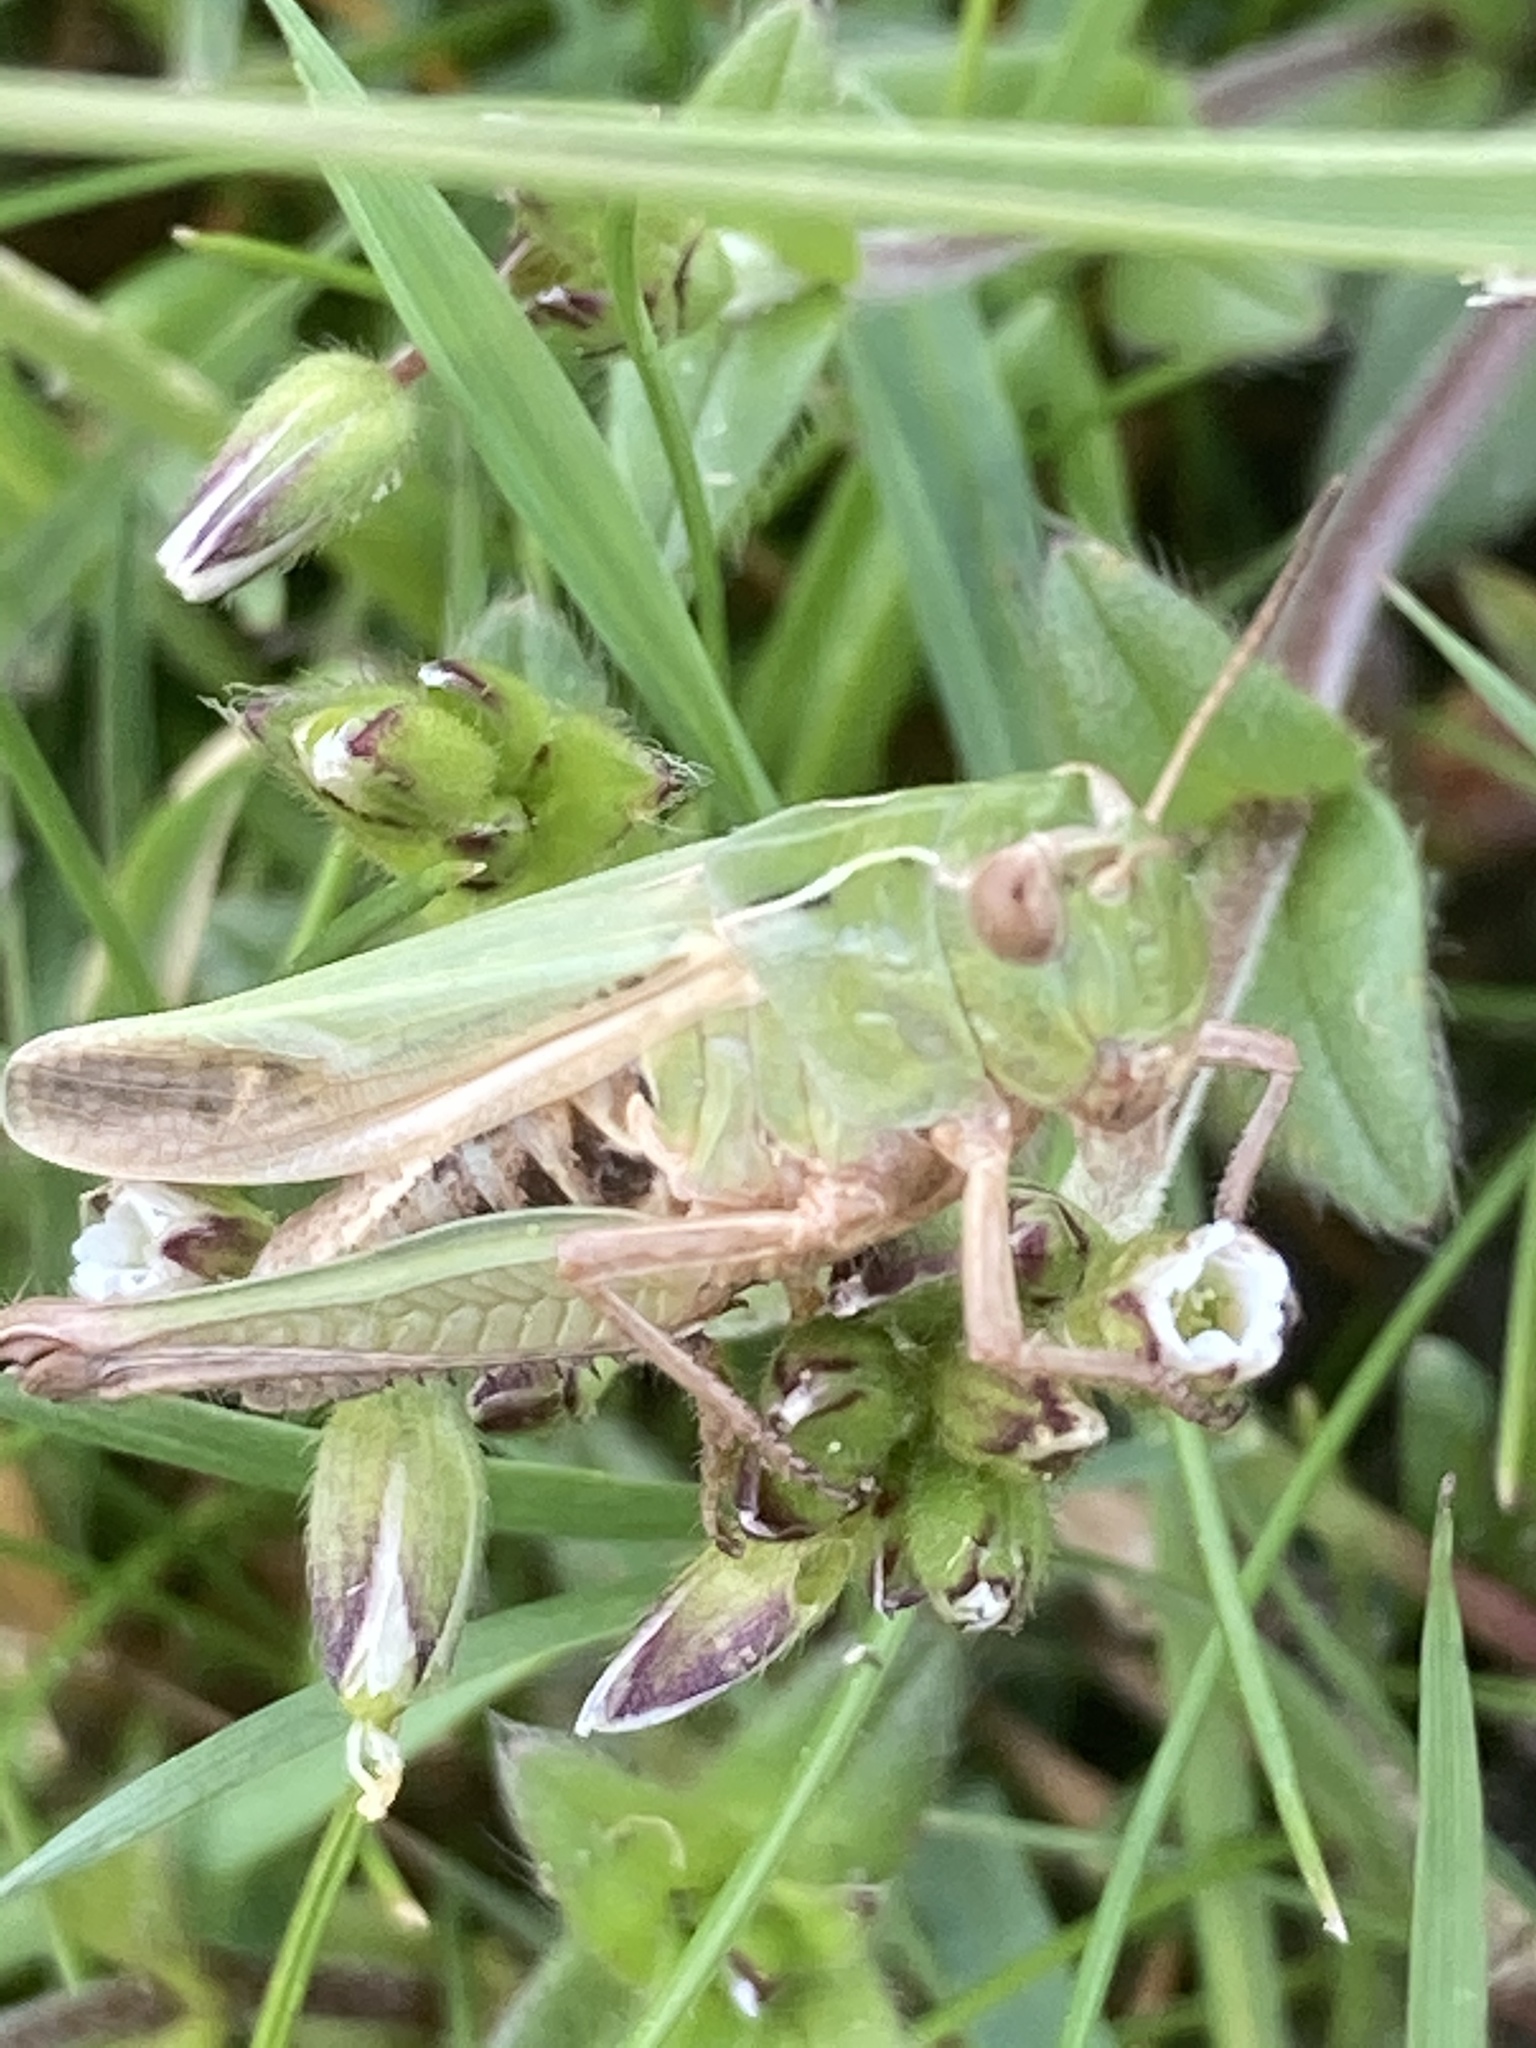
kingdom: Animalia
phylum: Arthropoda
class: Insecta
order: Orthoptera
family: Acrididae
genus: Omocestus
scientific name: Omocestus viridulus
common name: Common green grasshopper
